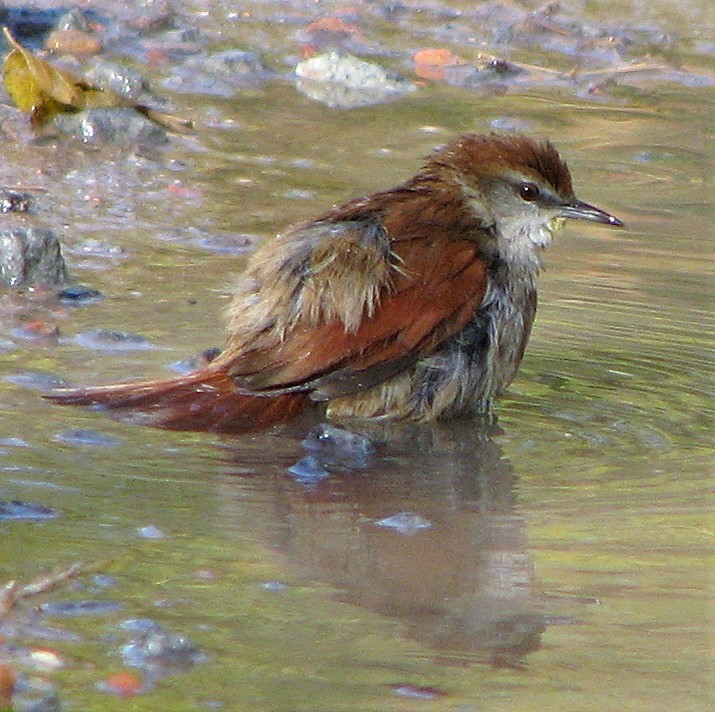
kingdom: Animalia
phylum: Chordata
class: Aves
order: Passeriformes
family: Furnariidae
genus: Certhiaxis
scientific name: Certhiaxis cinnamomeus
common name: Yellow-chinned spinetail
